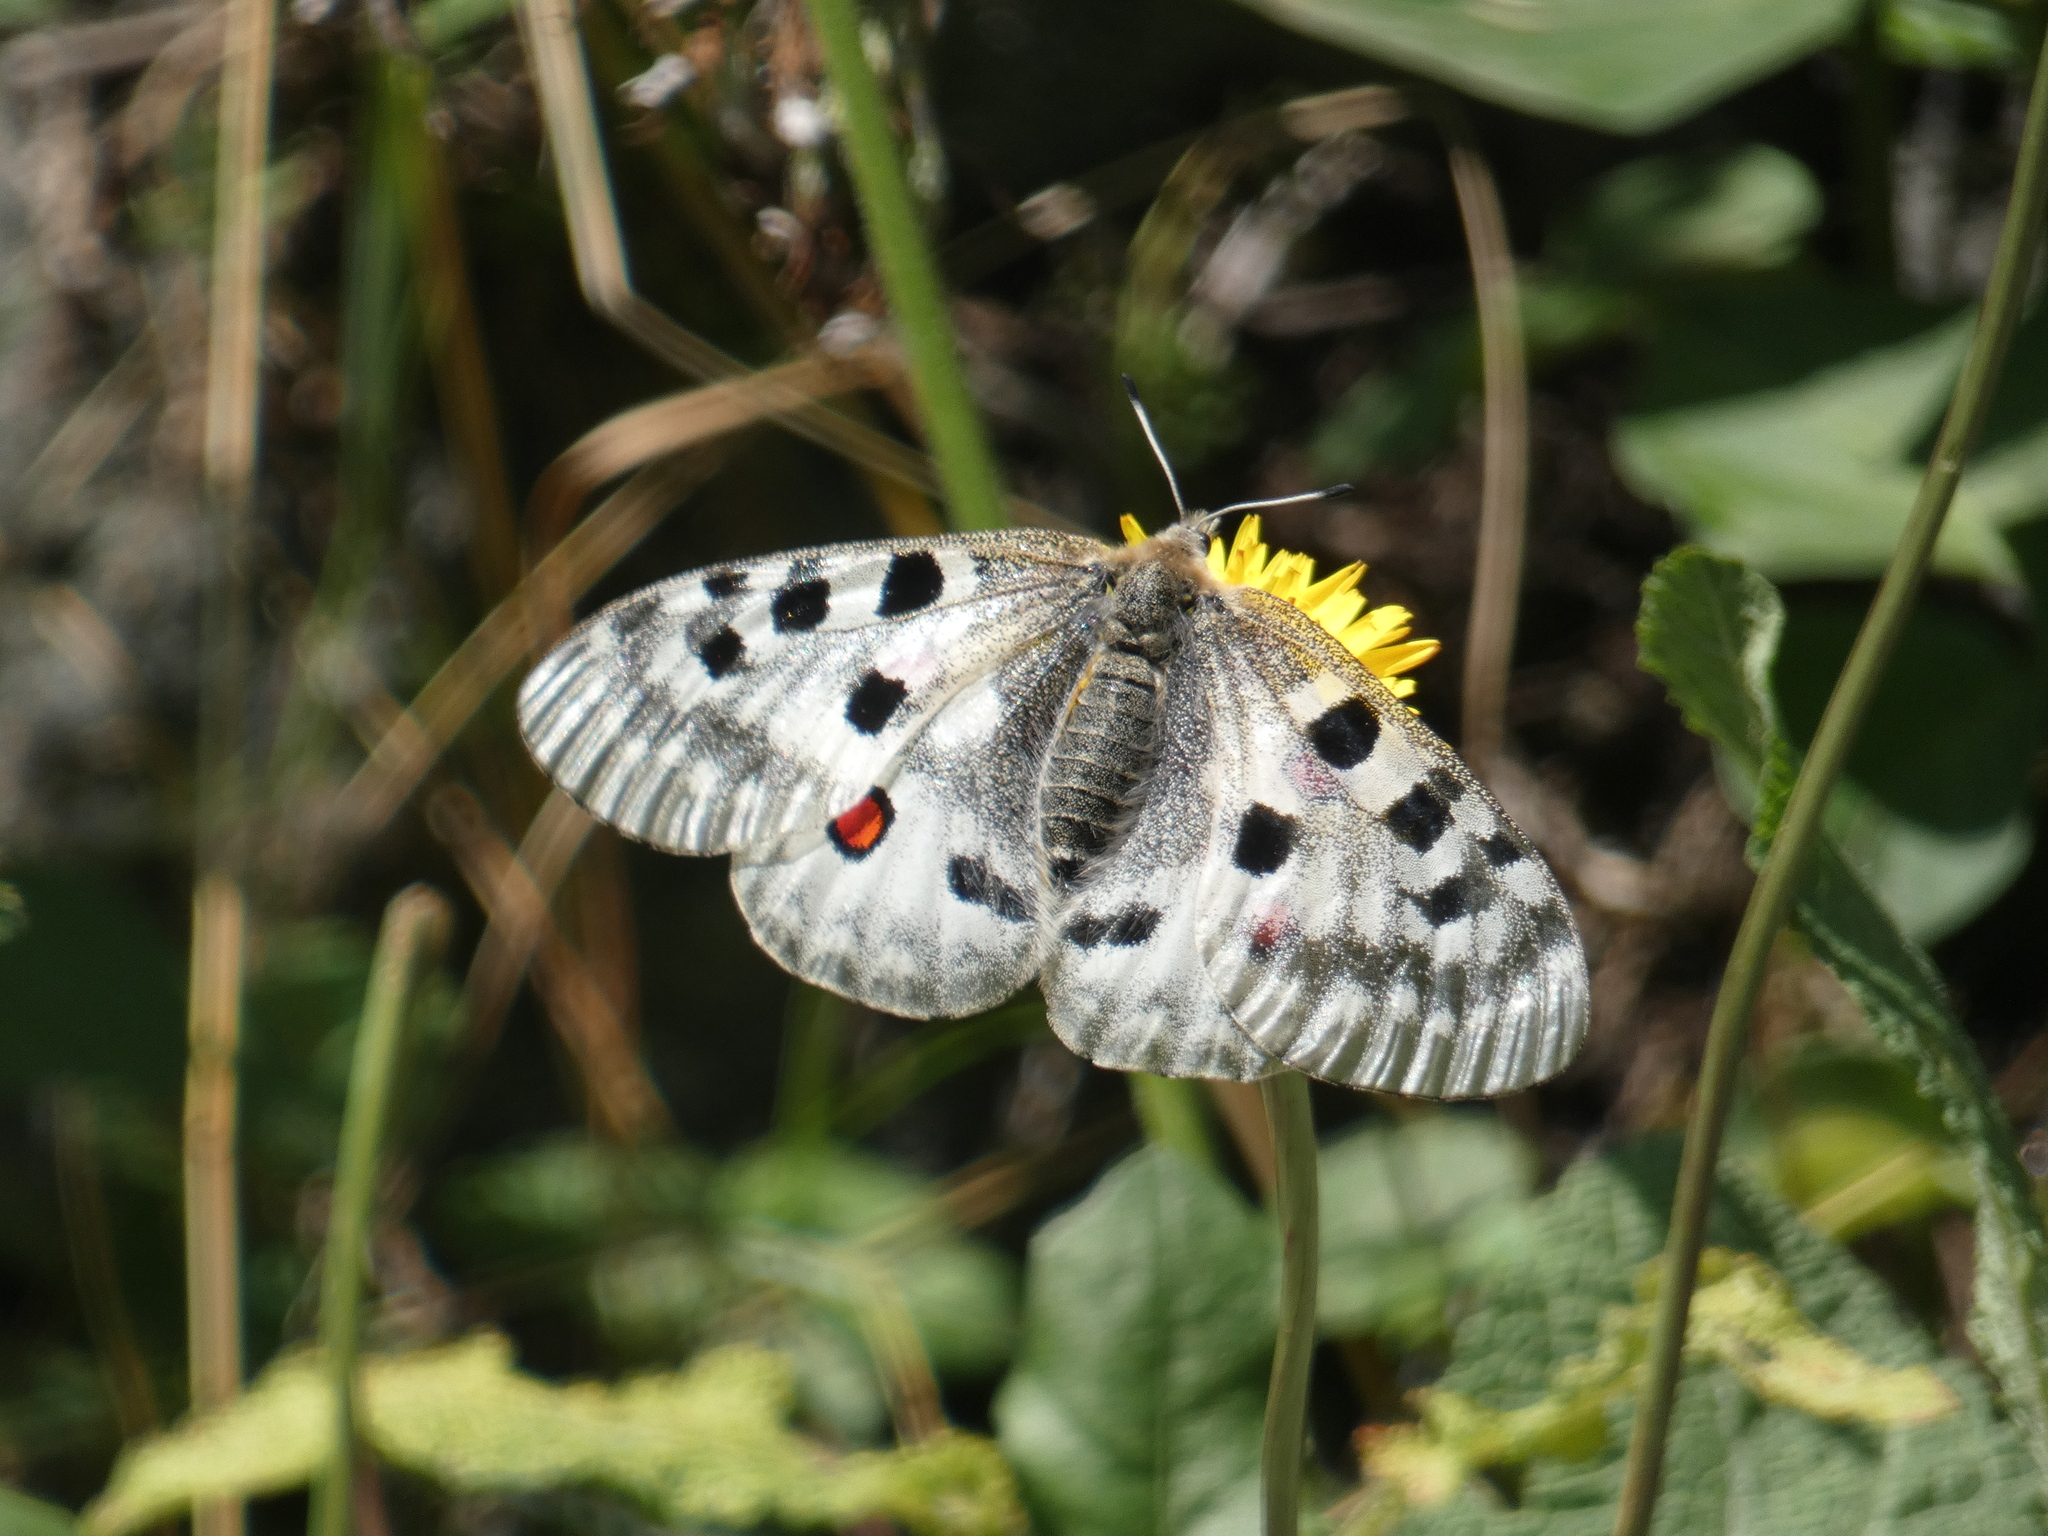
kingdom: Animalia
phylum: Arthropoda
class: Insecta
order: Lepidoptera
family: Papilionidae
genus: Parnassius
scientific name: Parnassius apollo
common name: Apollo
